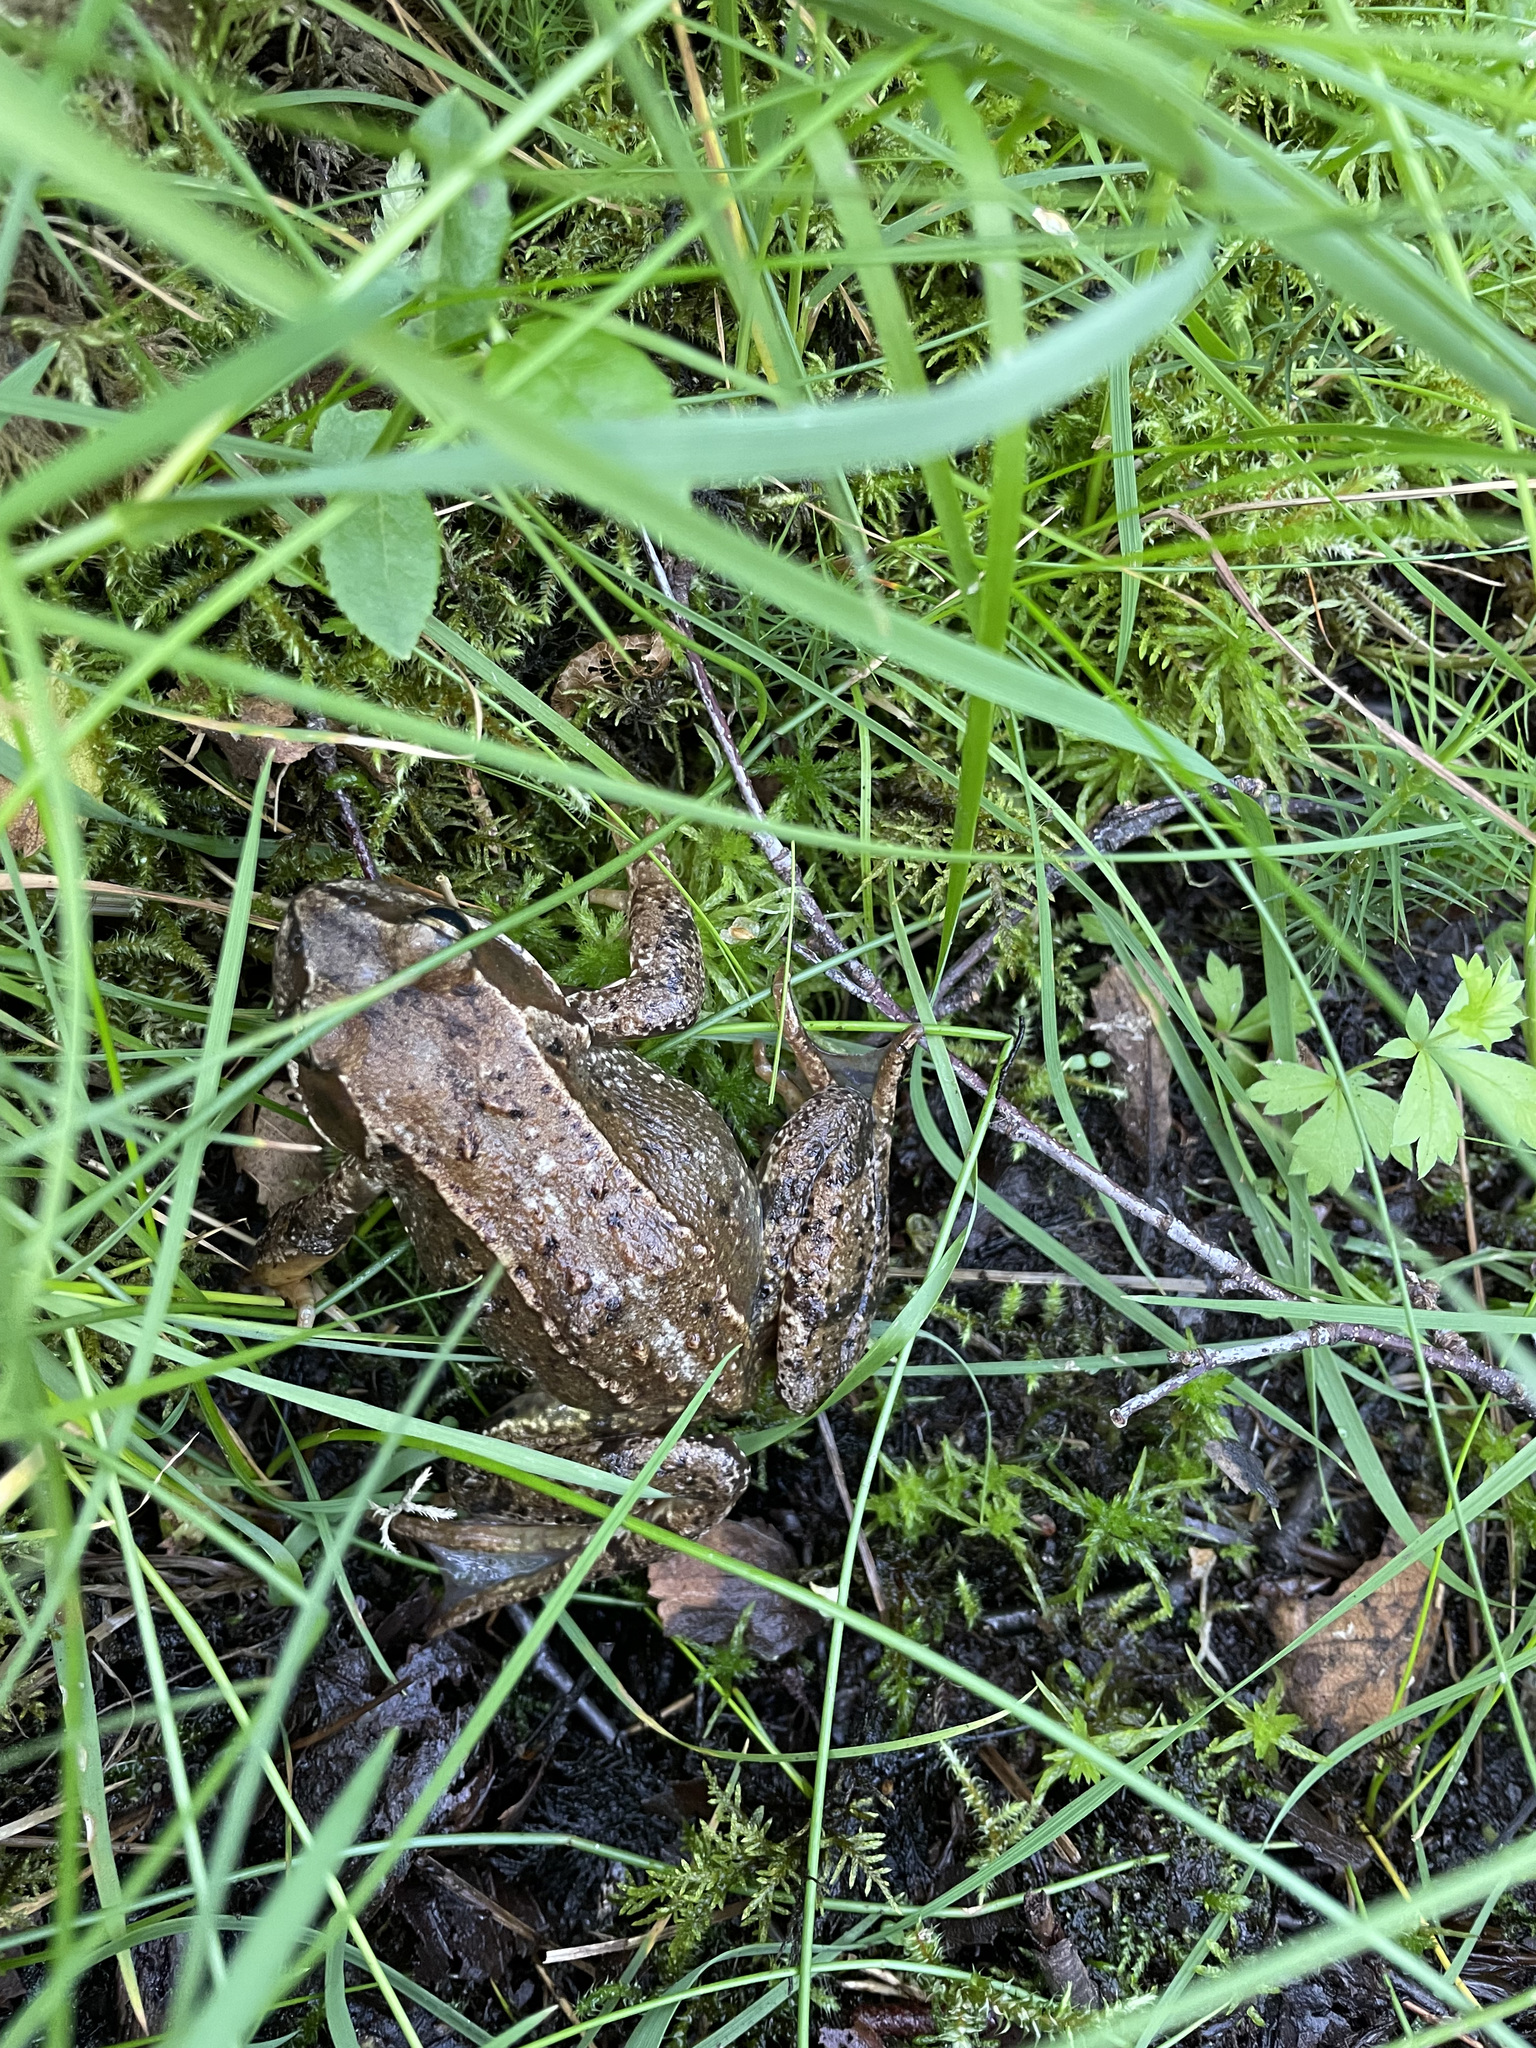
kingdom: Animalia
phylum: Chordata
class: Amphibia
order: Anura
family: Ranidae
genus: Rana
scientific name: Rana temporaria
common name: Common frog
